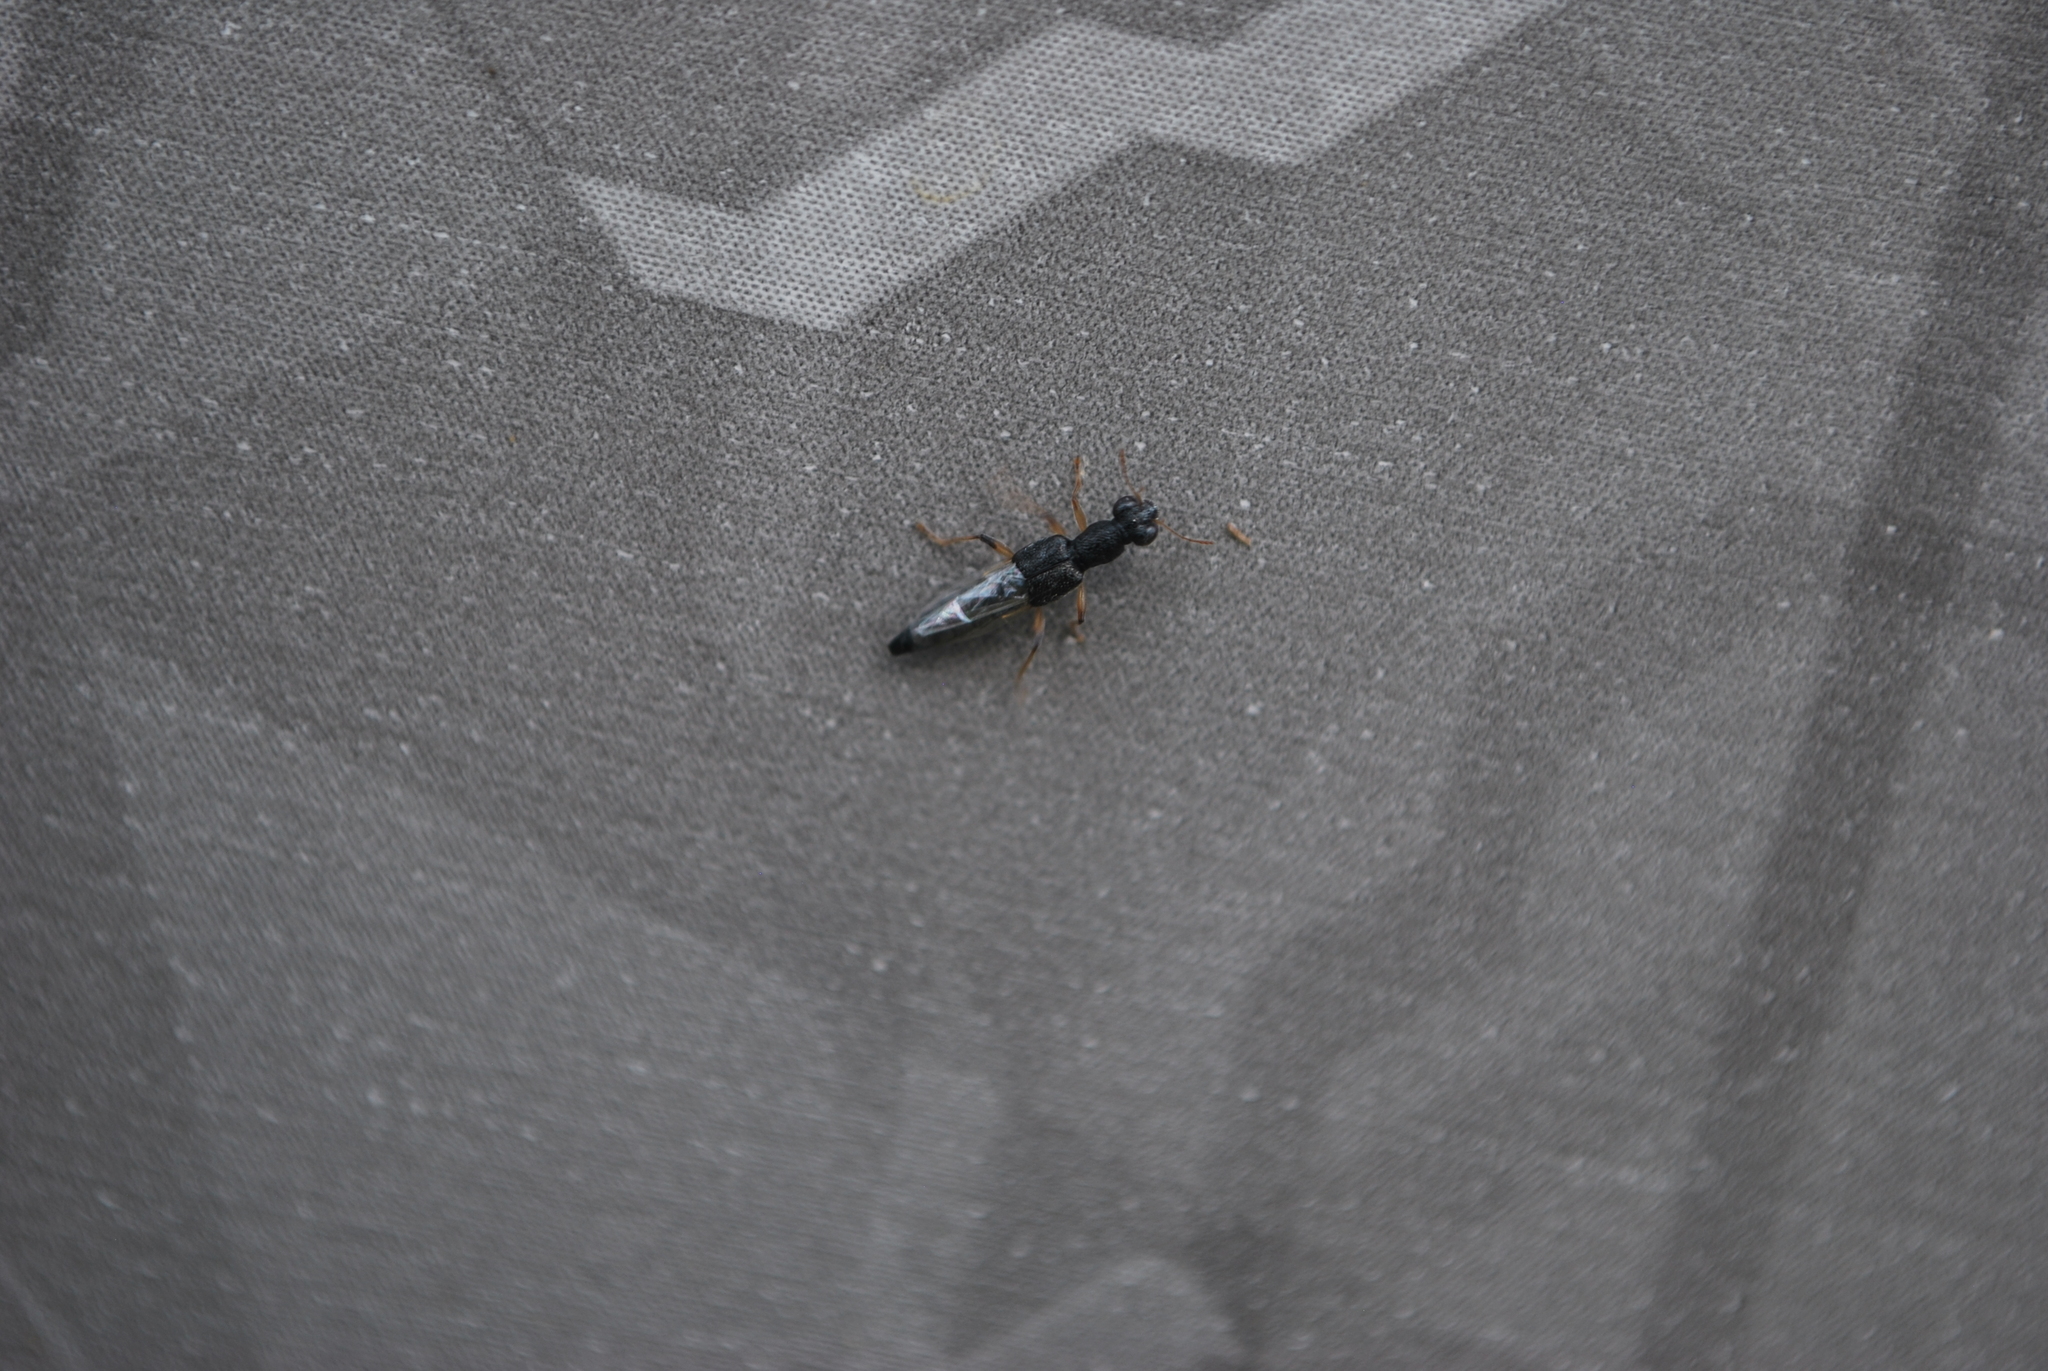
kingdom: Animalia
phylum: Arthropoda
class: Insecta
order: Coleoptera
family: Staphylinidae
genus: Stenus
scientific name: Stenus flavicornis
